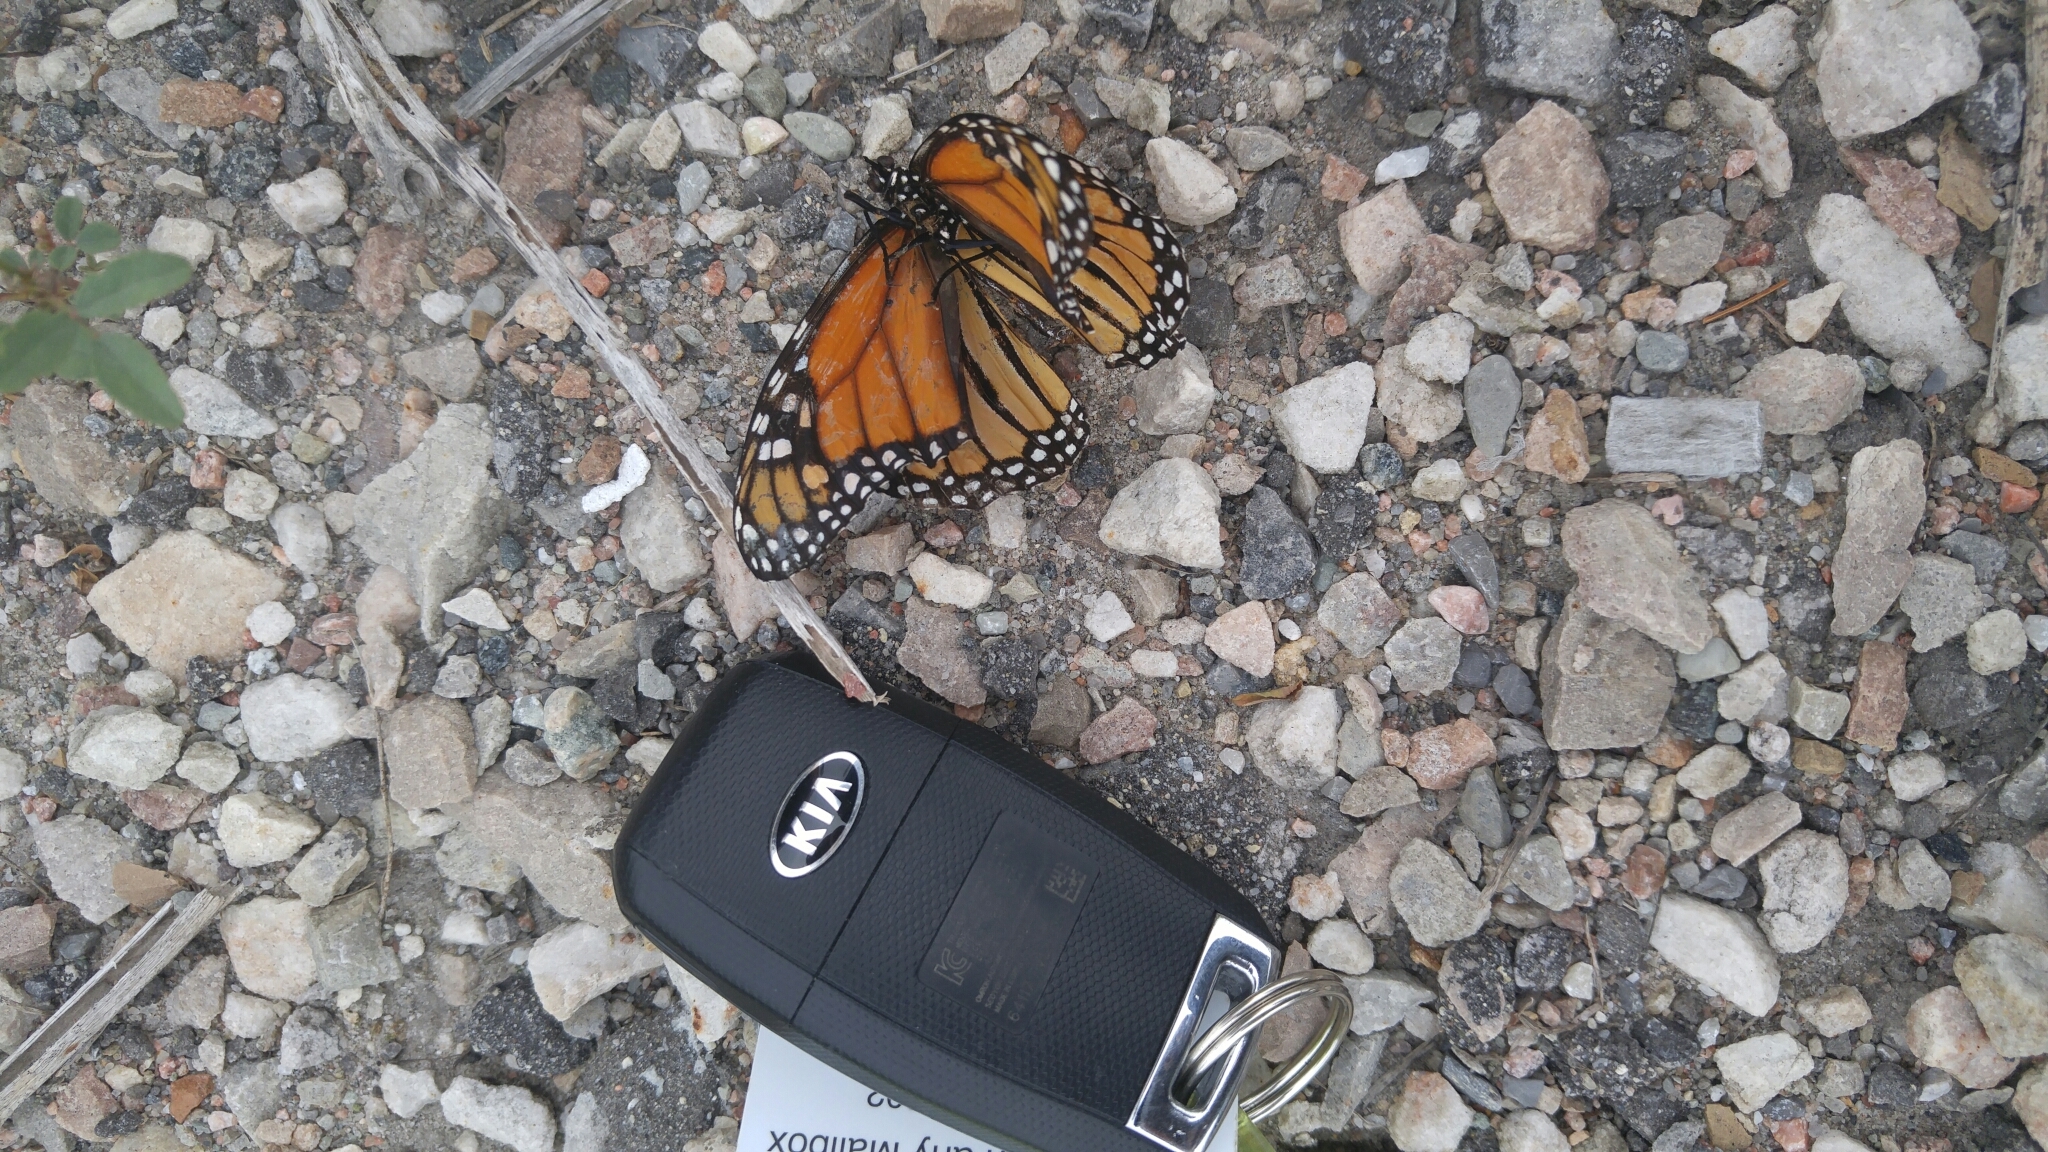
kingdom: Animalia
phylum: Arthropoda
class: Insecta
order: Lepidoptera
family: Nymphalidae
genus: Danaus
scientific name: Danaus plexippus
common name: Monarch
